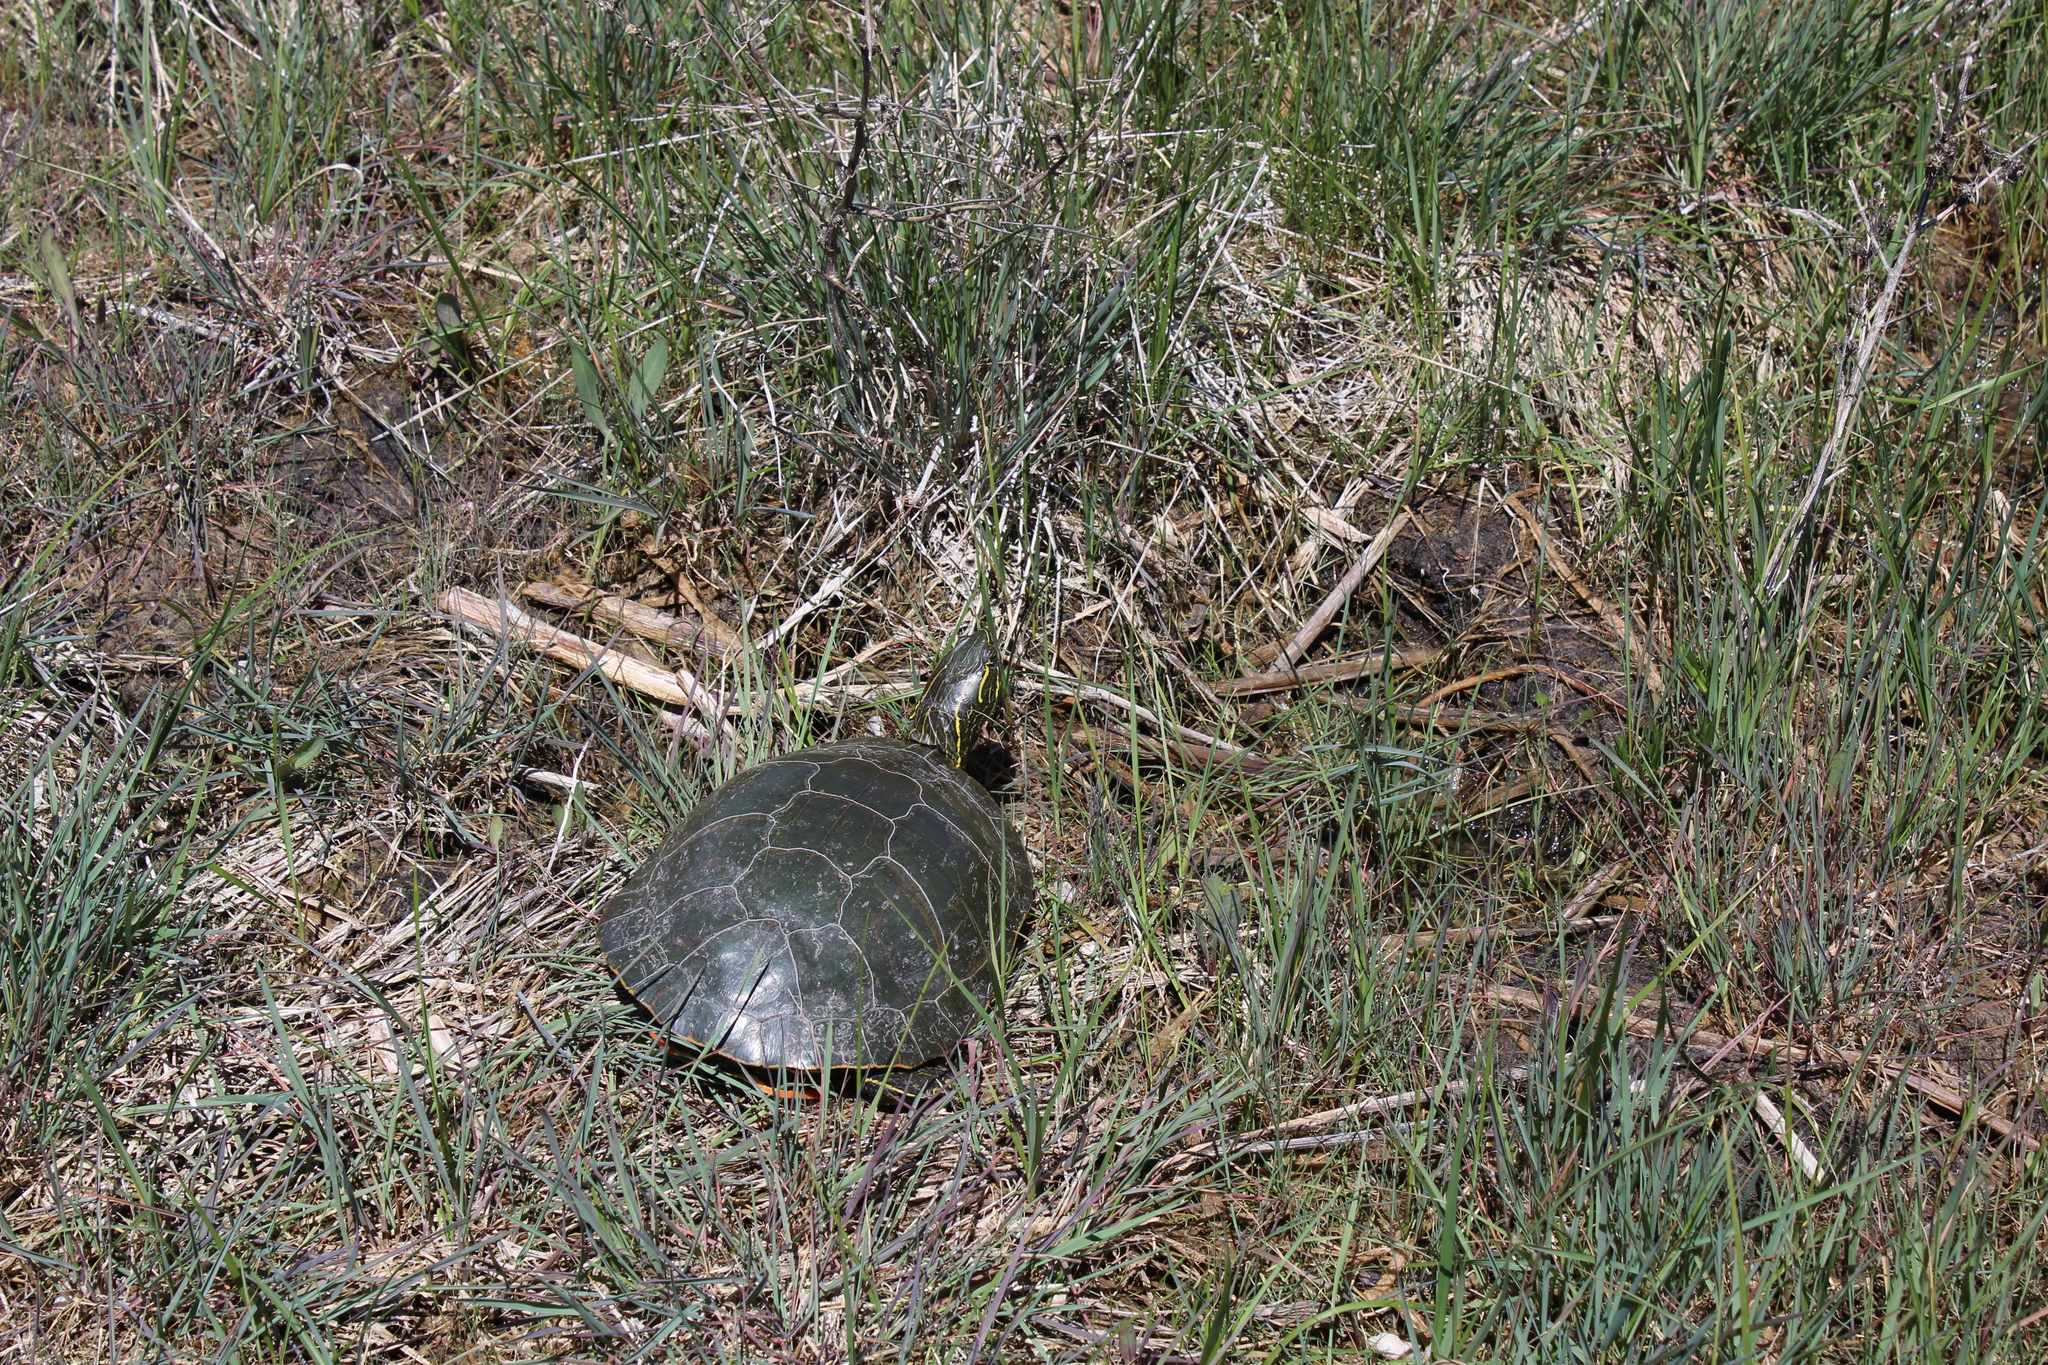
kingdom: Animalia
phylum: Chordata
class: Testudines
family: Emydidae
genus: Chrysemys
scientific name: Chrysemys picta
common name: Painted turtle
